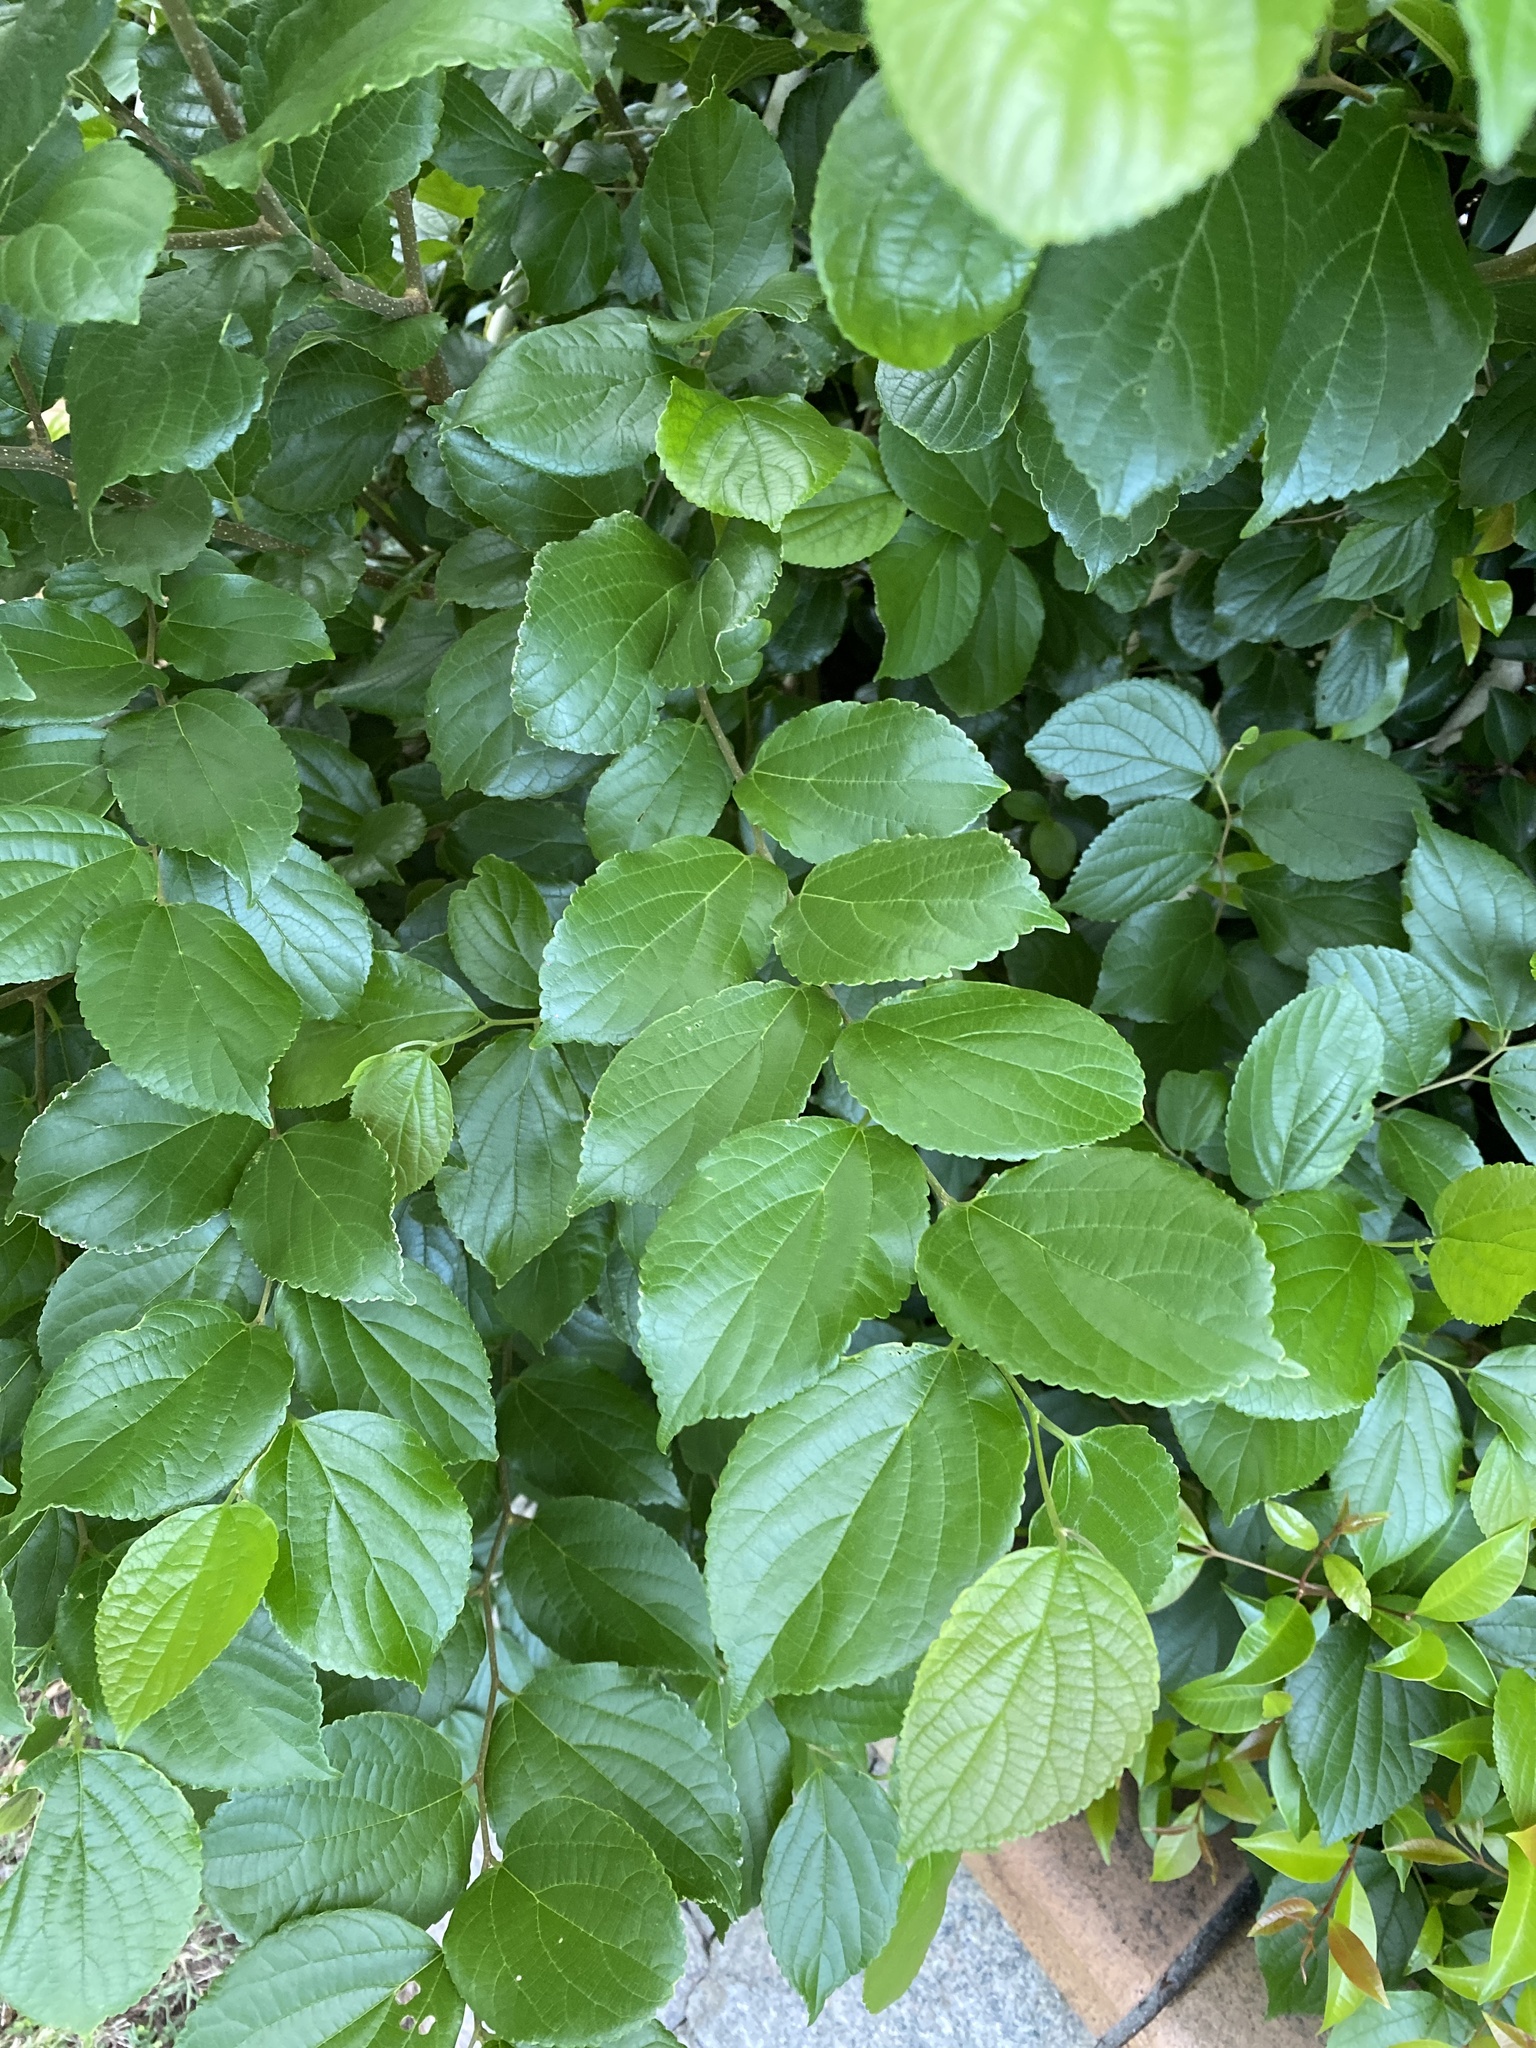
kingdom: Plantae
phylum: Tracheophyta
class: Magnoliopsida
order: Rosales
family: Cannabaceae
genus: Celtis
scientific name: Celtis sinensis
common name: Chinese hackberry
